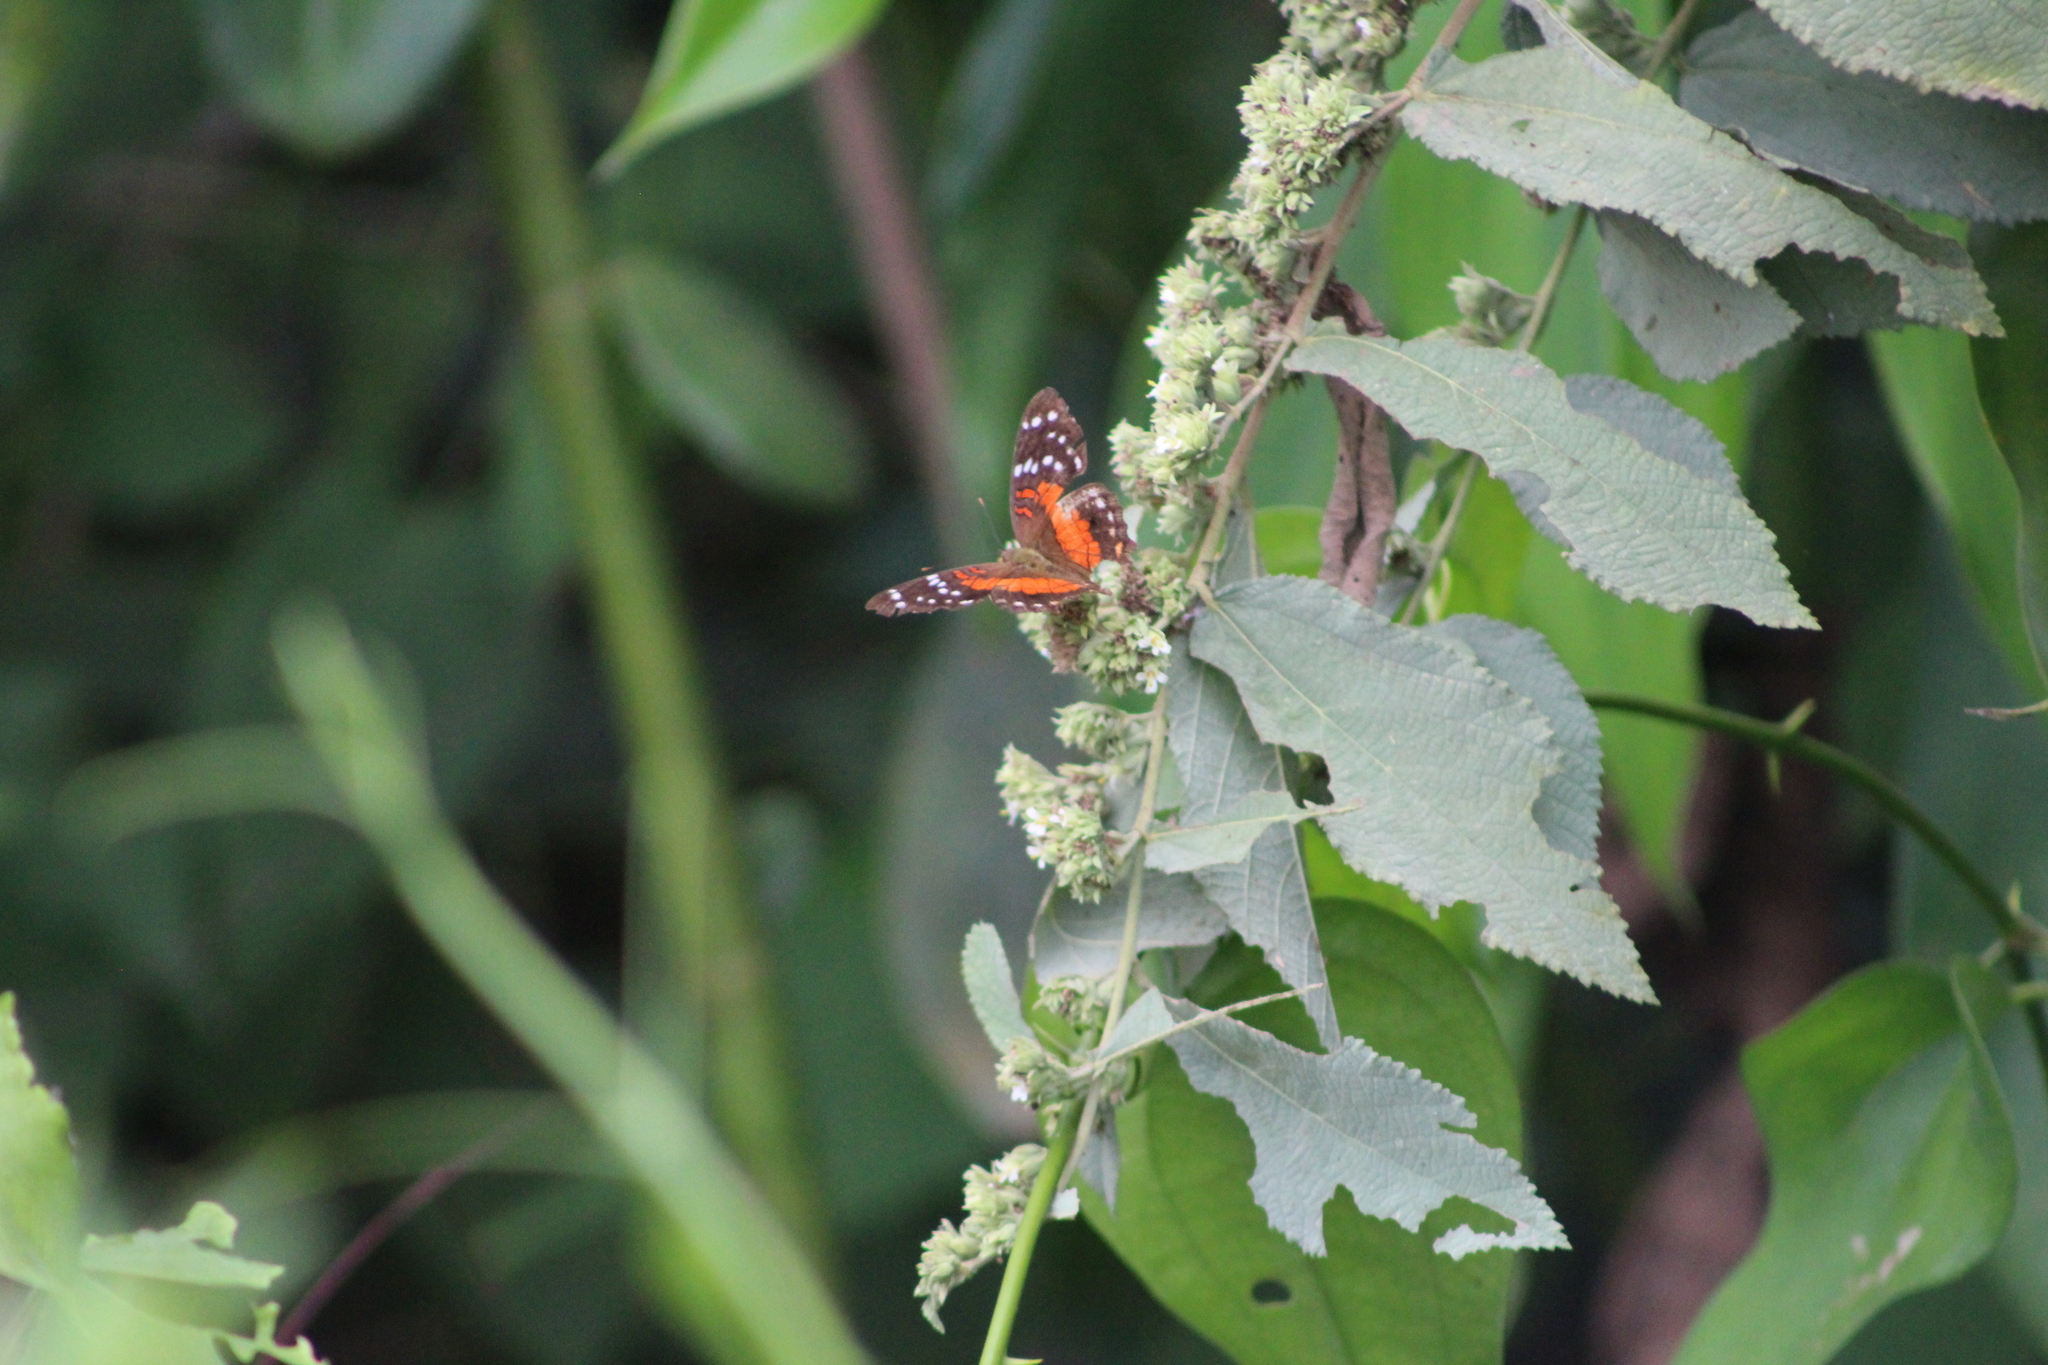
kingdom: Animalia
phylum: Arthropoda
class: Insecta
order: Lepidoptera
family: Nymphalidae
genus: Anartia
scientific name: Anartia amathea
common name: Red peacock
